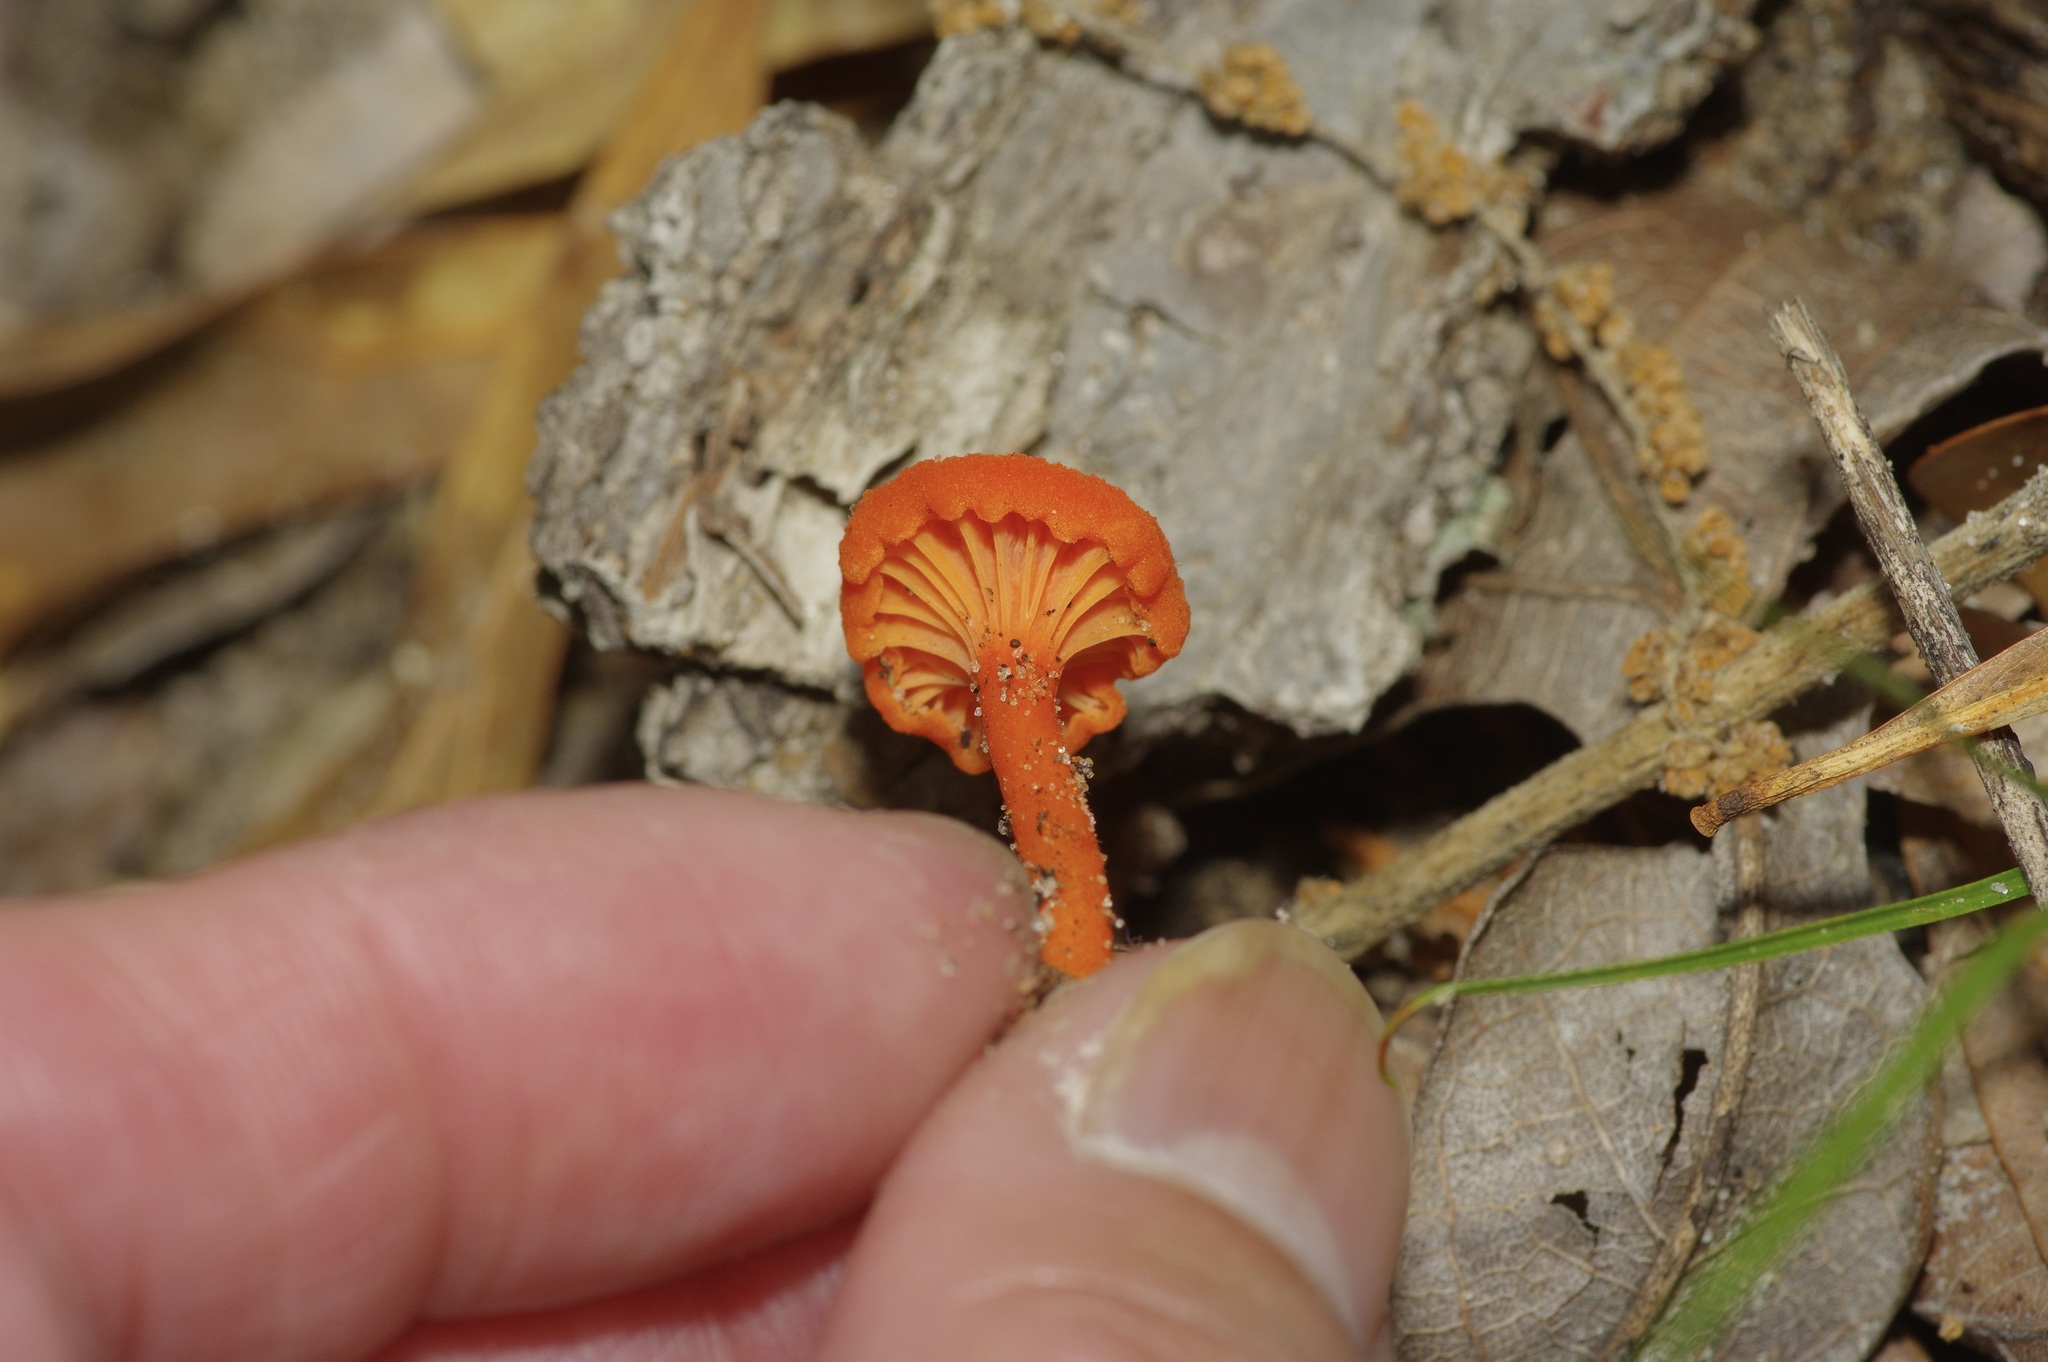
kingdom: Fungi
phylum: Basidiomycota
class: Agaricomycetes
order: Cantharellales
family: Hydnaceae
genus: Cantharellus
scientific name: Cantharellus cinnabarinus
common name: Cinnabar chanterelle
